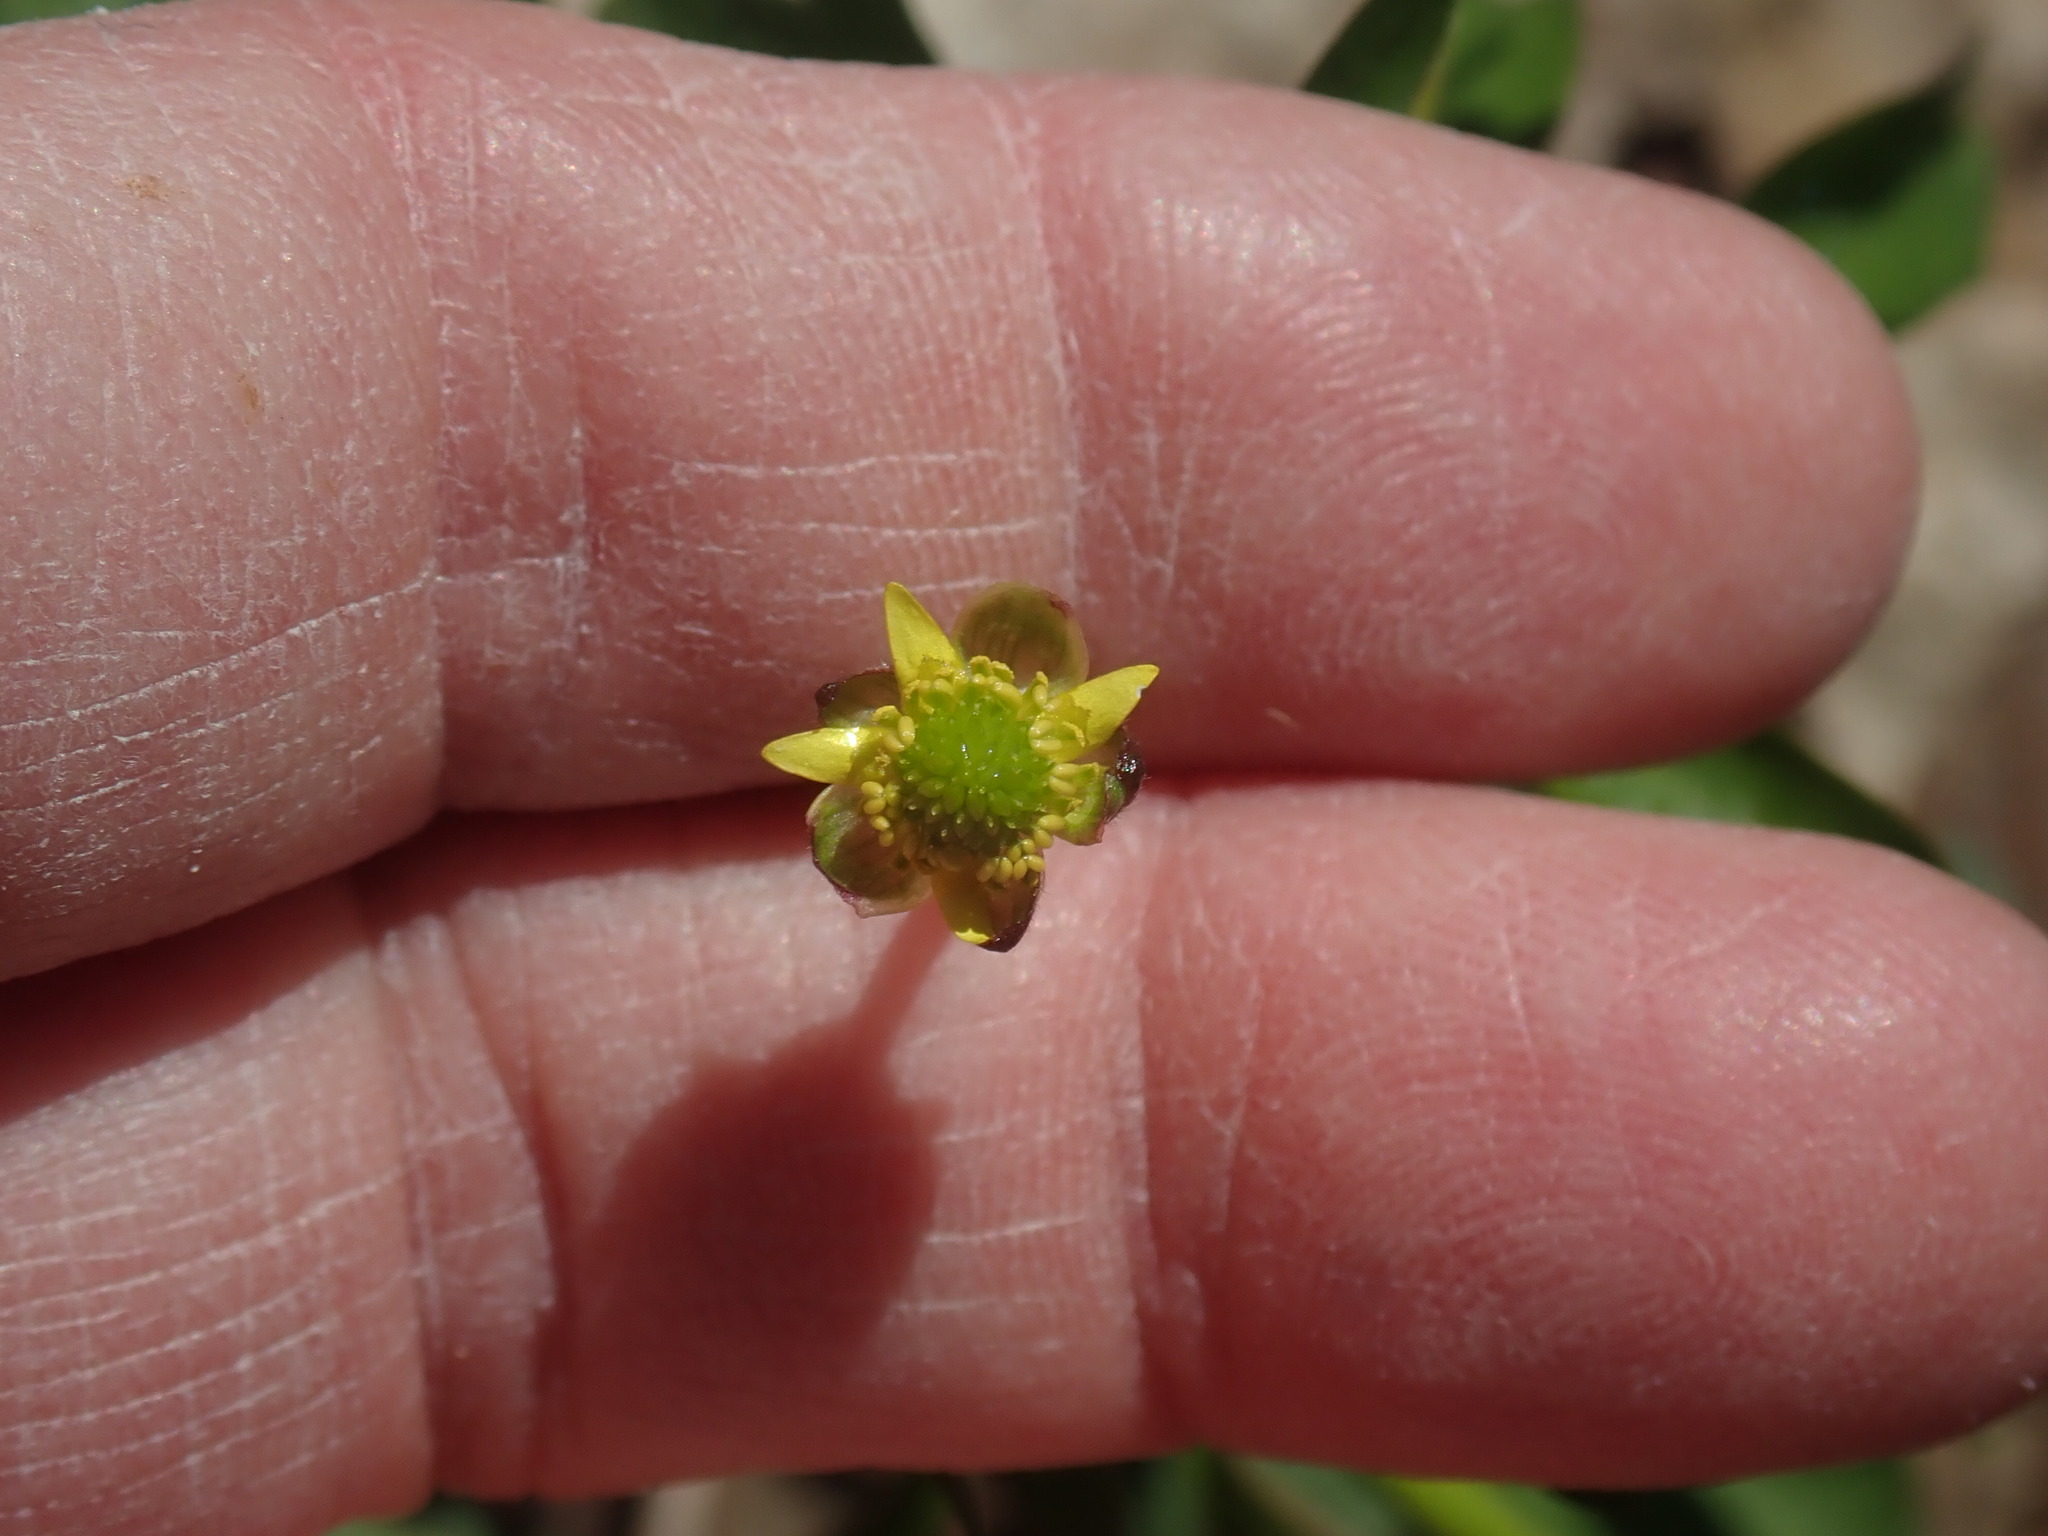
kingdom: Plantae
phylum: Tracheophyta
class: Magnoliopsida
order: Ranunculales
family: Ranunculaceae
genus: Ranunculus
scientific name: Ranunculus abortivus
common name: Early wood buttercup
